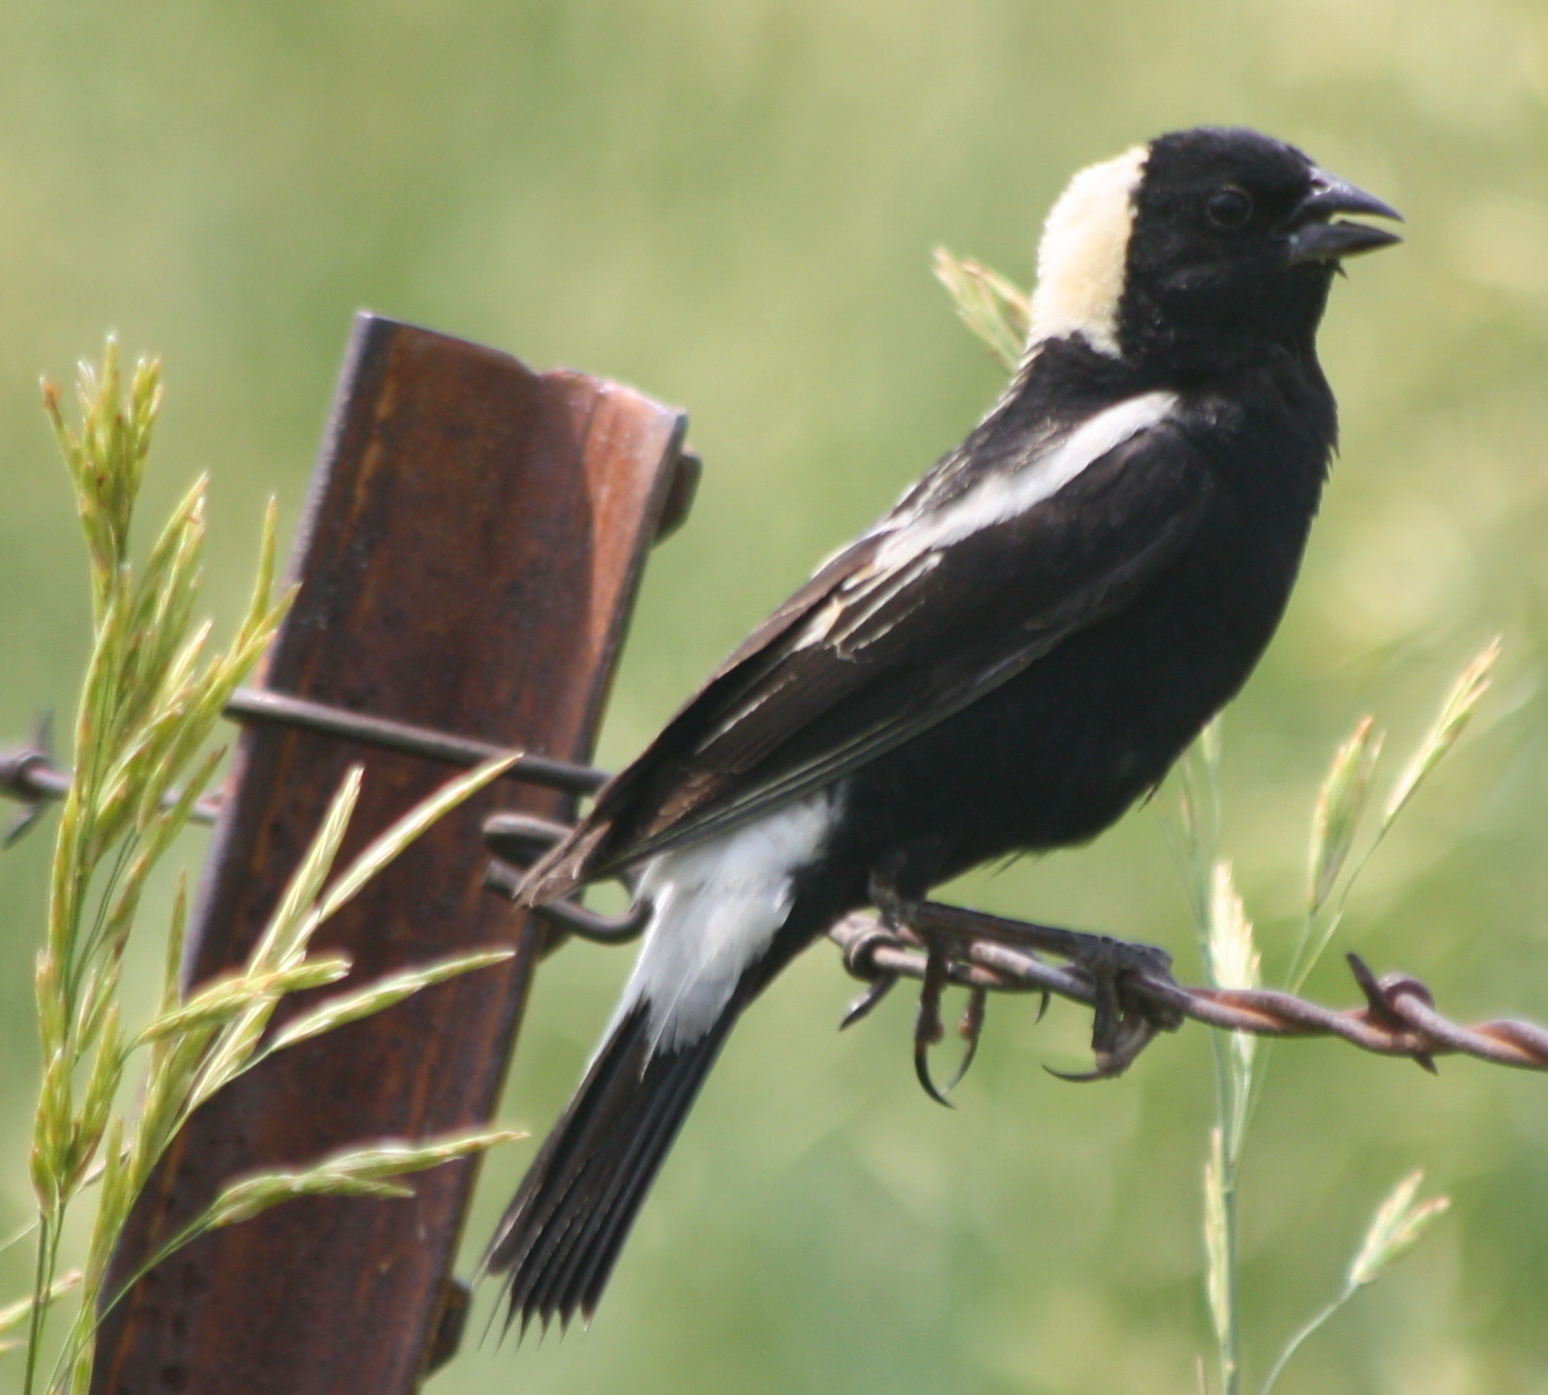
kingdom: Animalia
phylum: Chordata
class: Aves
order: Passeriformes
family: Icteridae
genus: Dolichonyx
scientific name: Dolichonyx oryzivorus
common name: Bobolink
